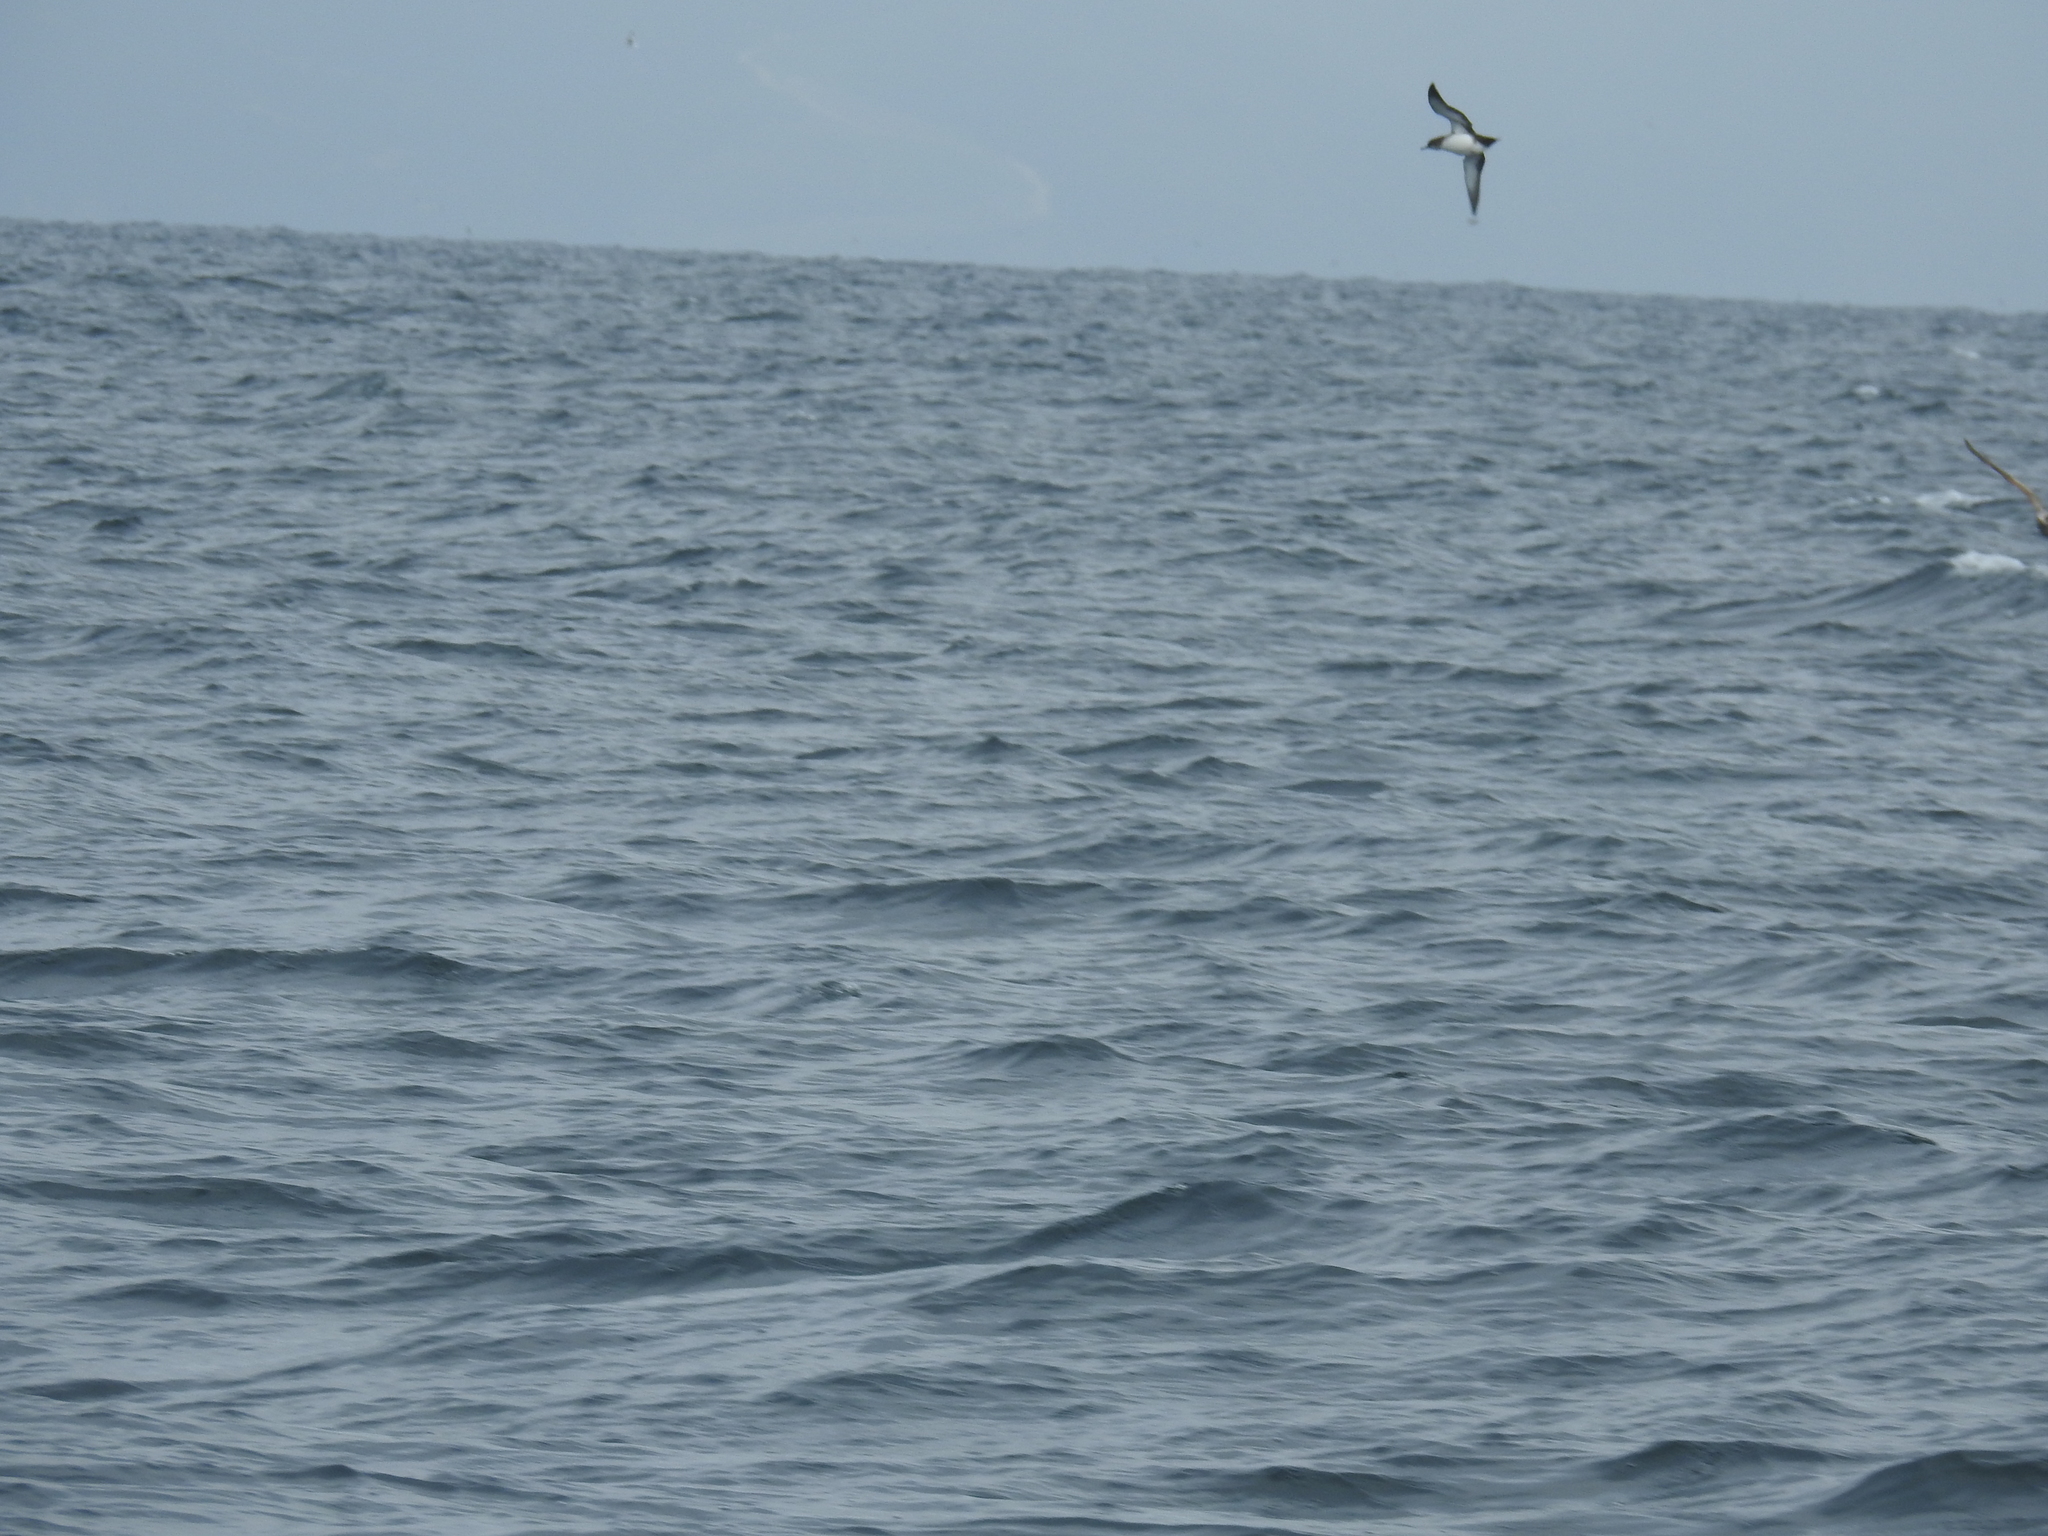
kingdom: Animalia
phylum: Chordata
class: Aves
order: Procellariiformes
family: Procellariidae
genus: Puffinus
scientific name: Puffinus opisthomelas
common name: Black-vented shearwater
